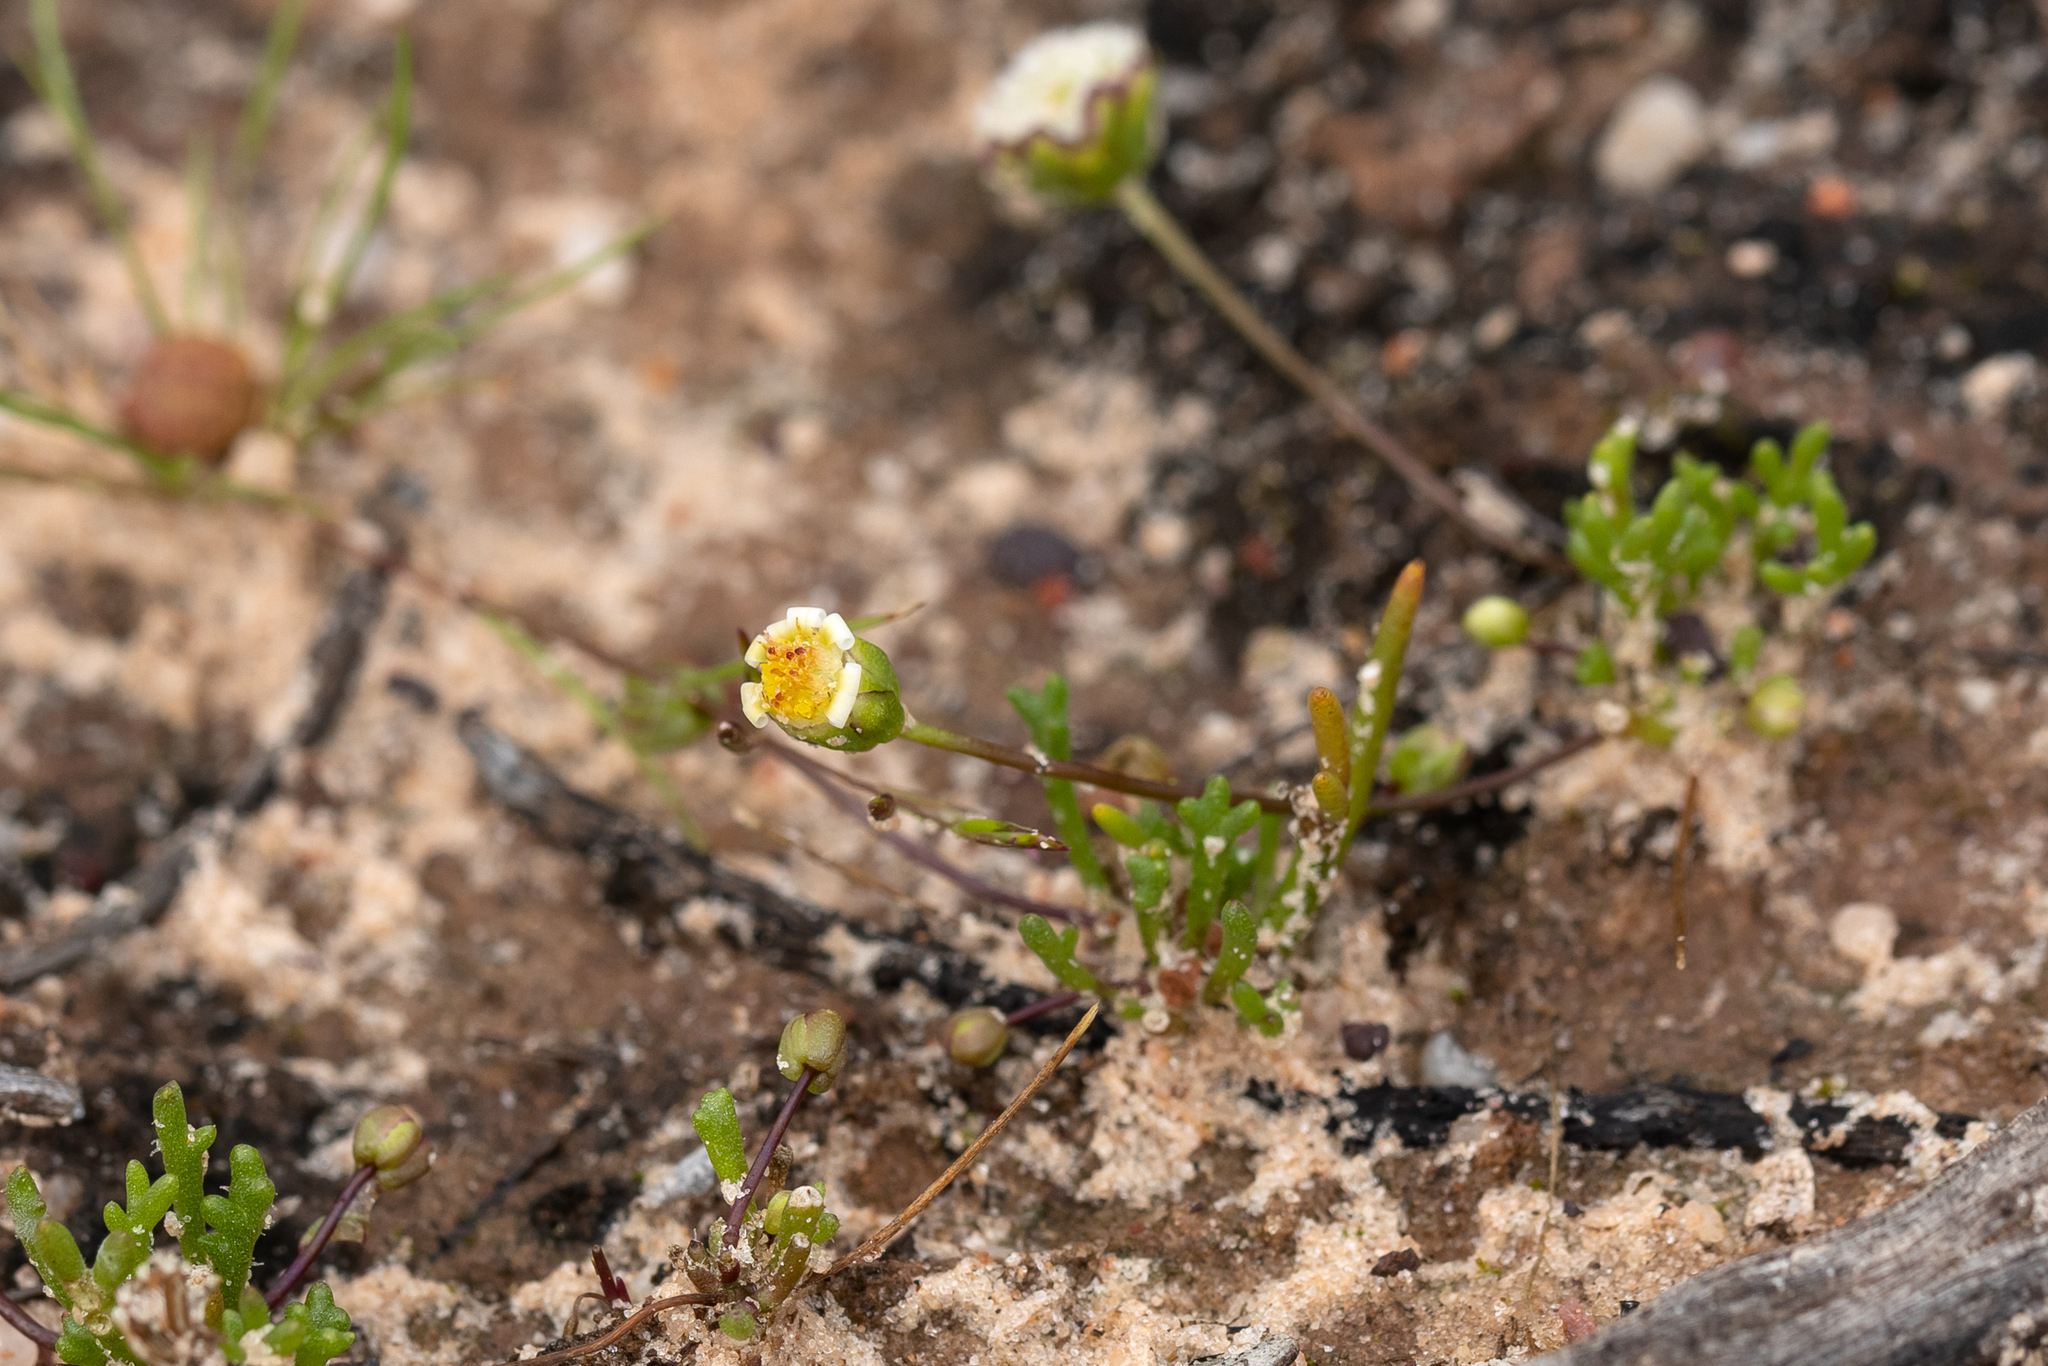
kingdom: Plantae
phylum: Tracheophyta
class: Magnoliopsida
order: Asterales
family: Asteraceae
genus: Brachyscome
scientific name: Brachyscome lineariloba
